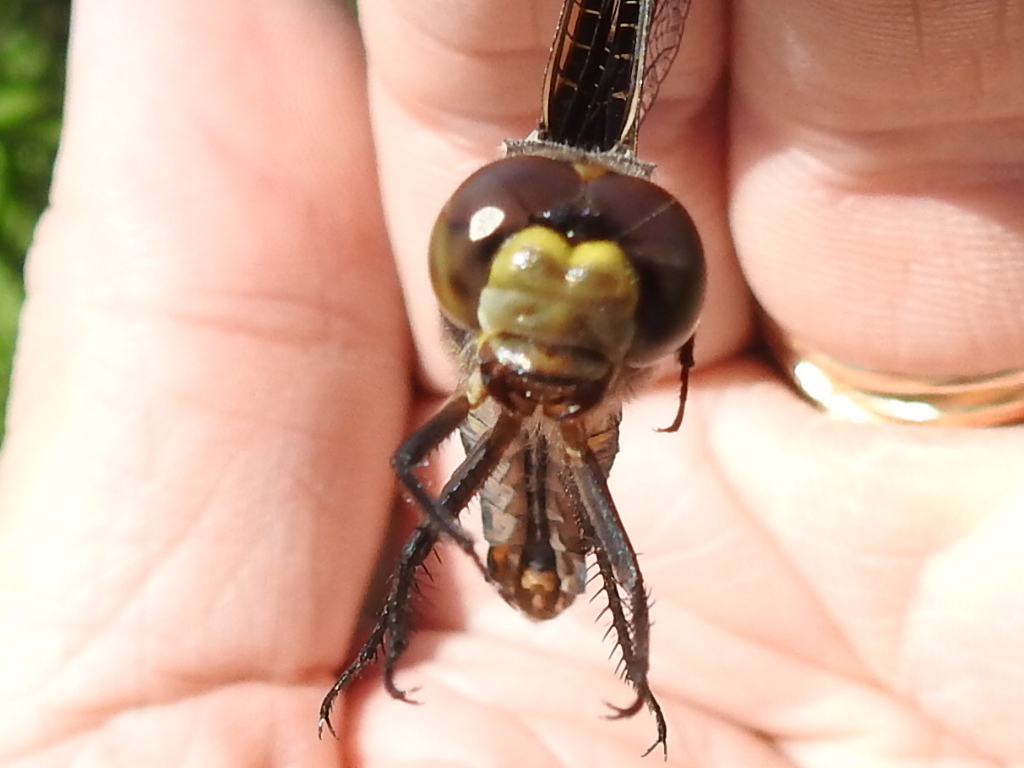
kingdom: Animalia
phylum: Arthropoda
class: Insecta
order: Odonata
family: Libellulidae
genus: Libellula
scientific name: Libellula pulchella
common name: Twelve-spotted skimmer
